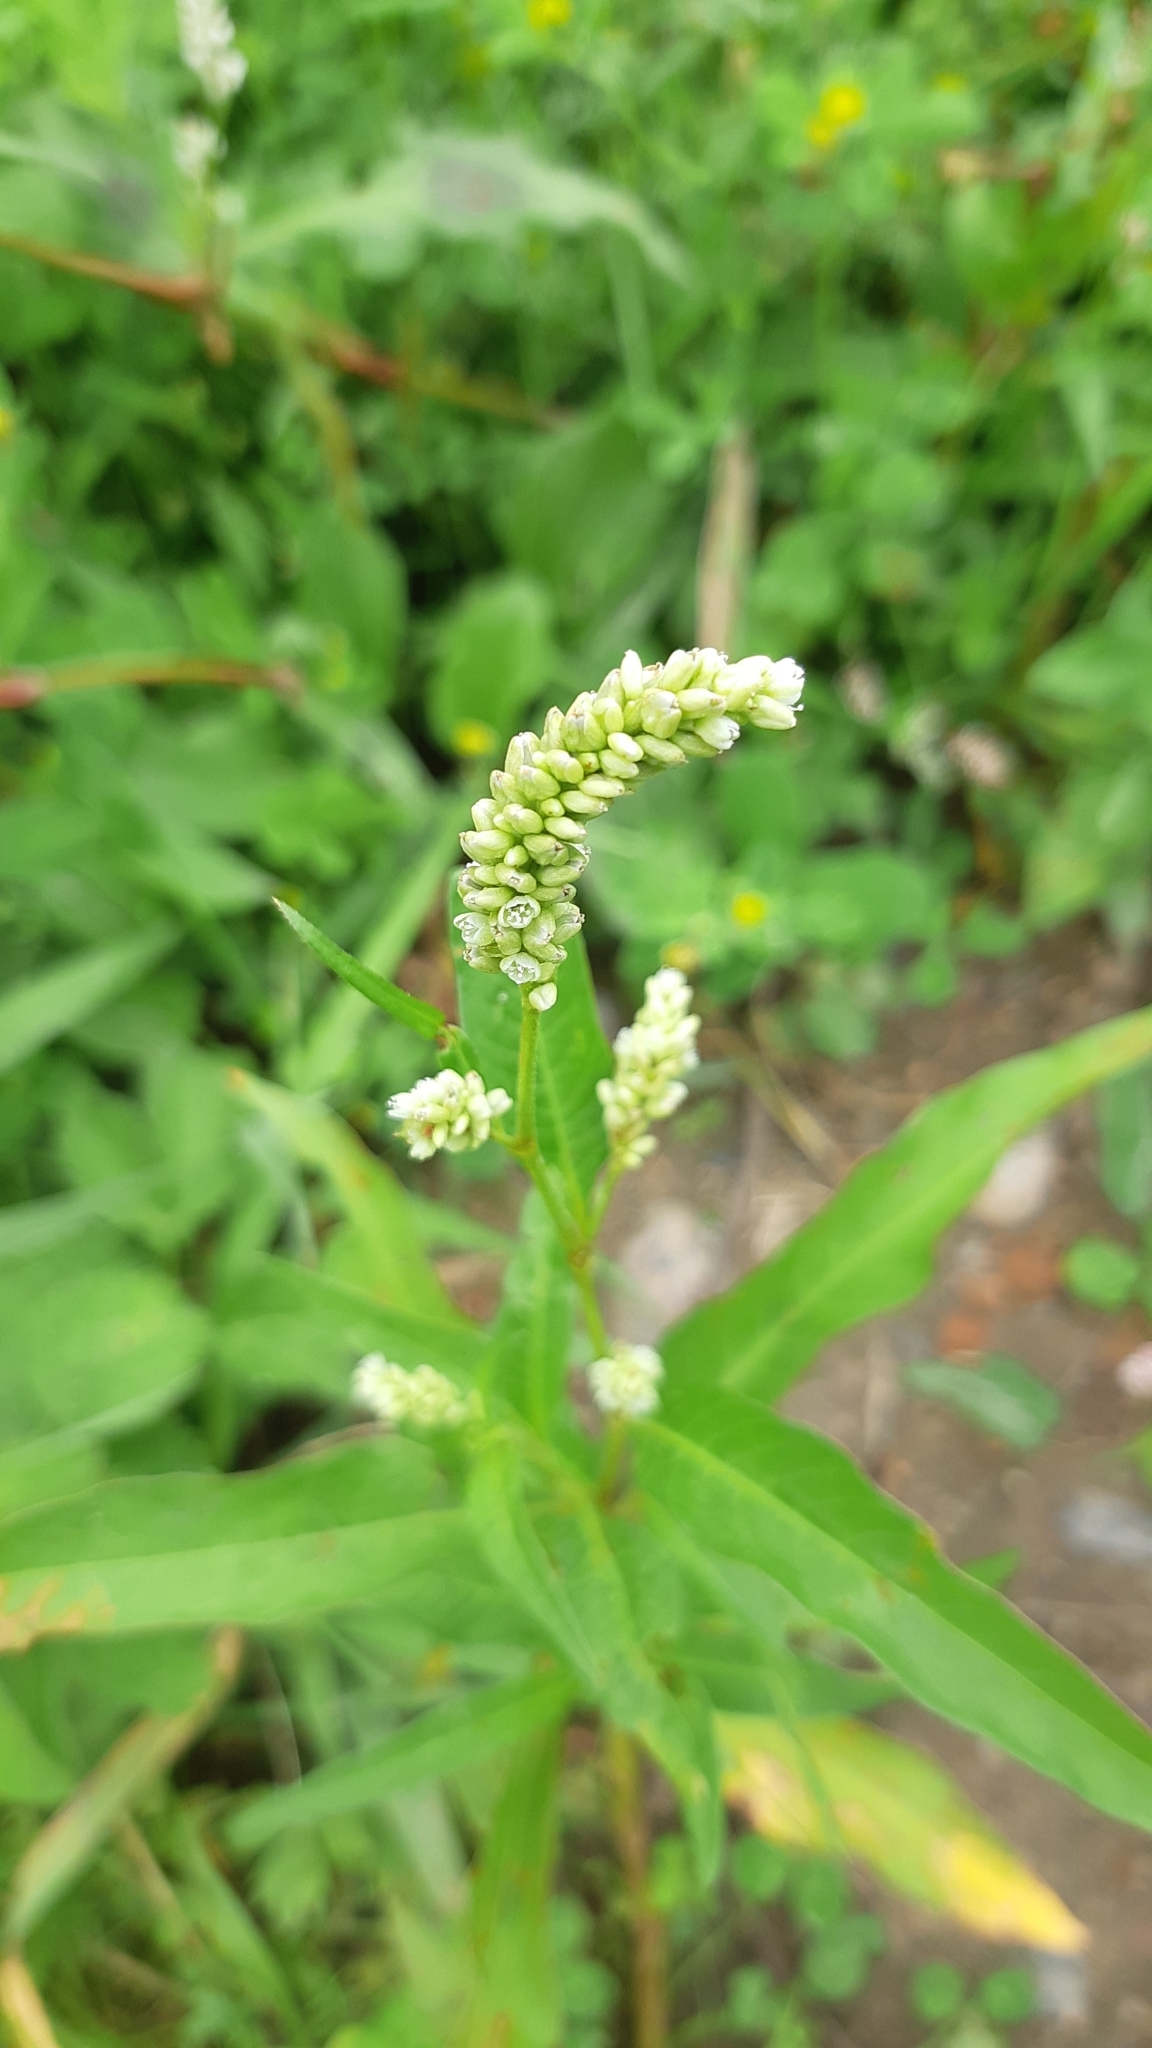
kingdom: Plantae
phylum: Tracheophyta
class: Magnoliopsida
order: Caryophyllales
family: Polygonaceae
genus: Persicaria
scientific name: Persicaria lapathifolia
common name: Curlytop knotweed
